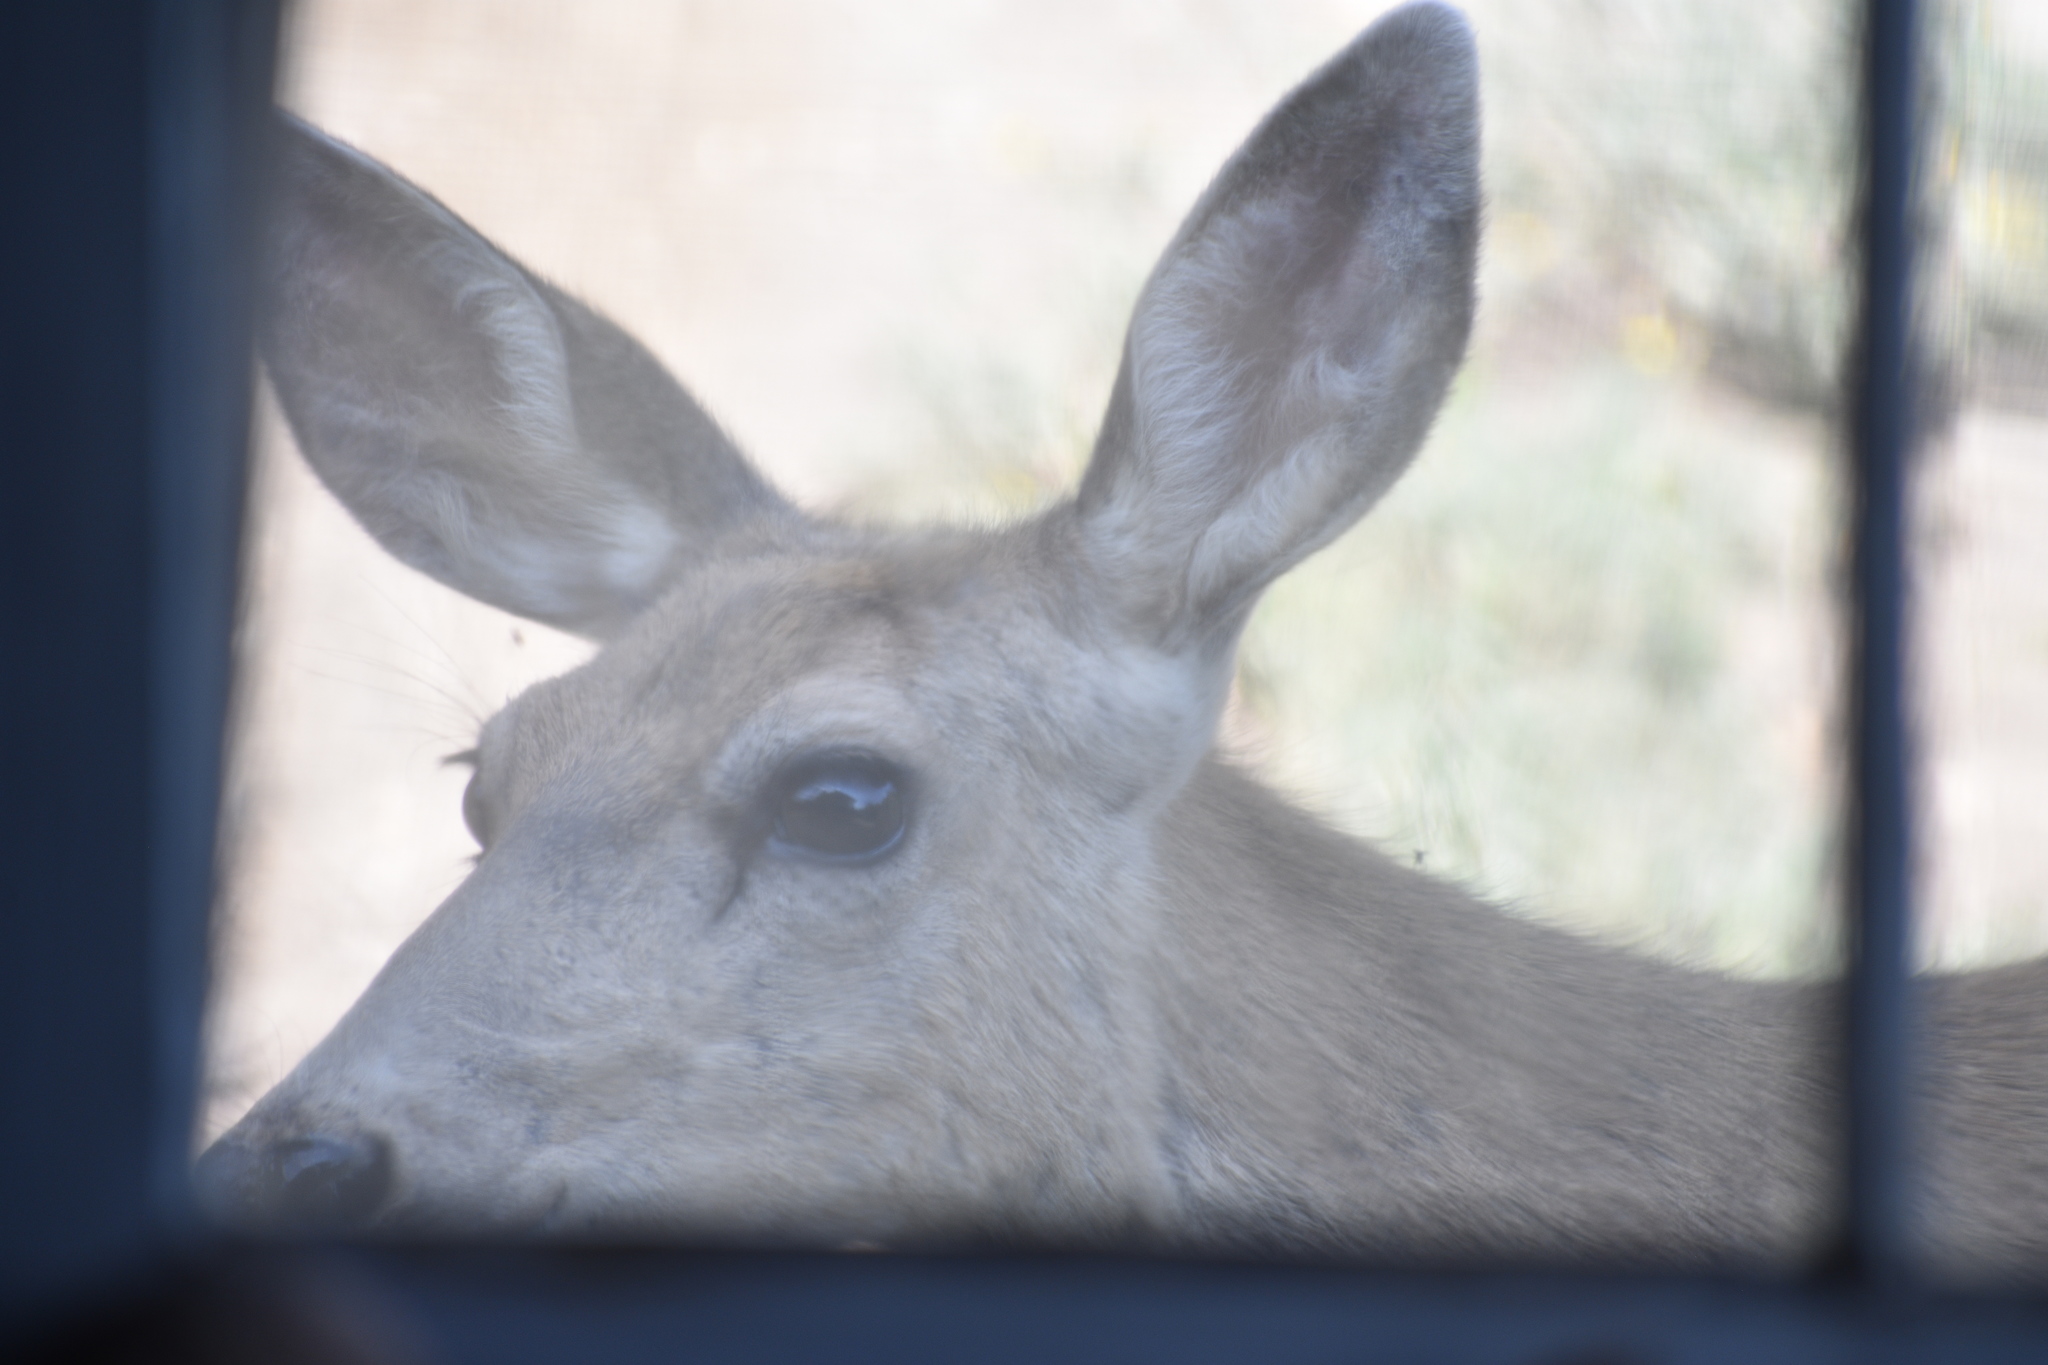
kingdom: Animalia
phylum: Chordata
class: Mammalia
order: Artiodactyla
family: Cervidae
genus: Odocoileus
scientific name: Odocoileus hemionus
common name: Mule deer
